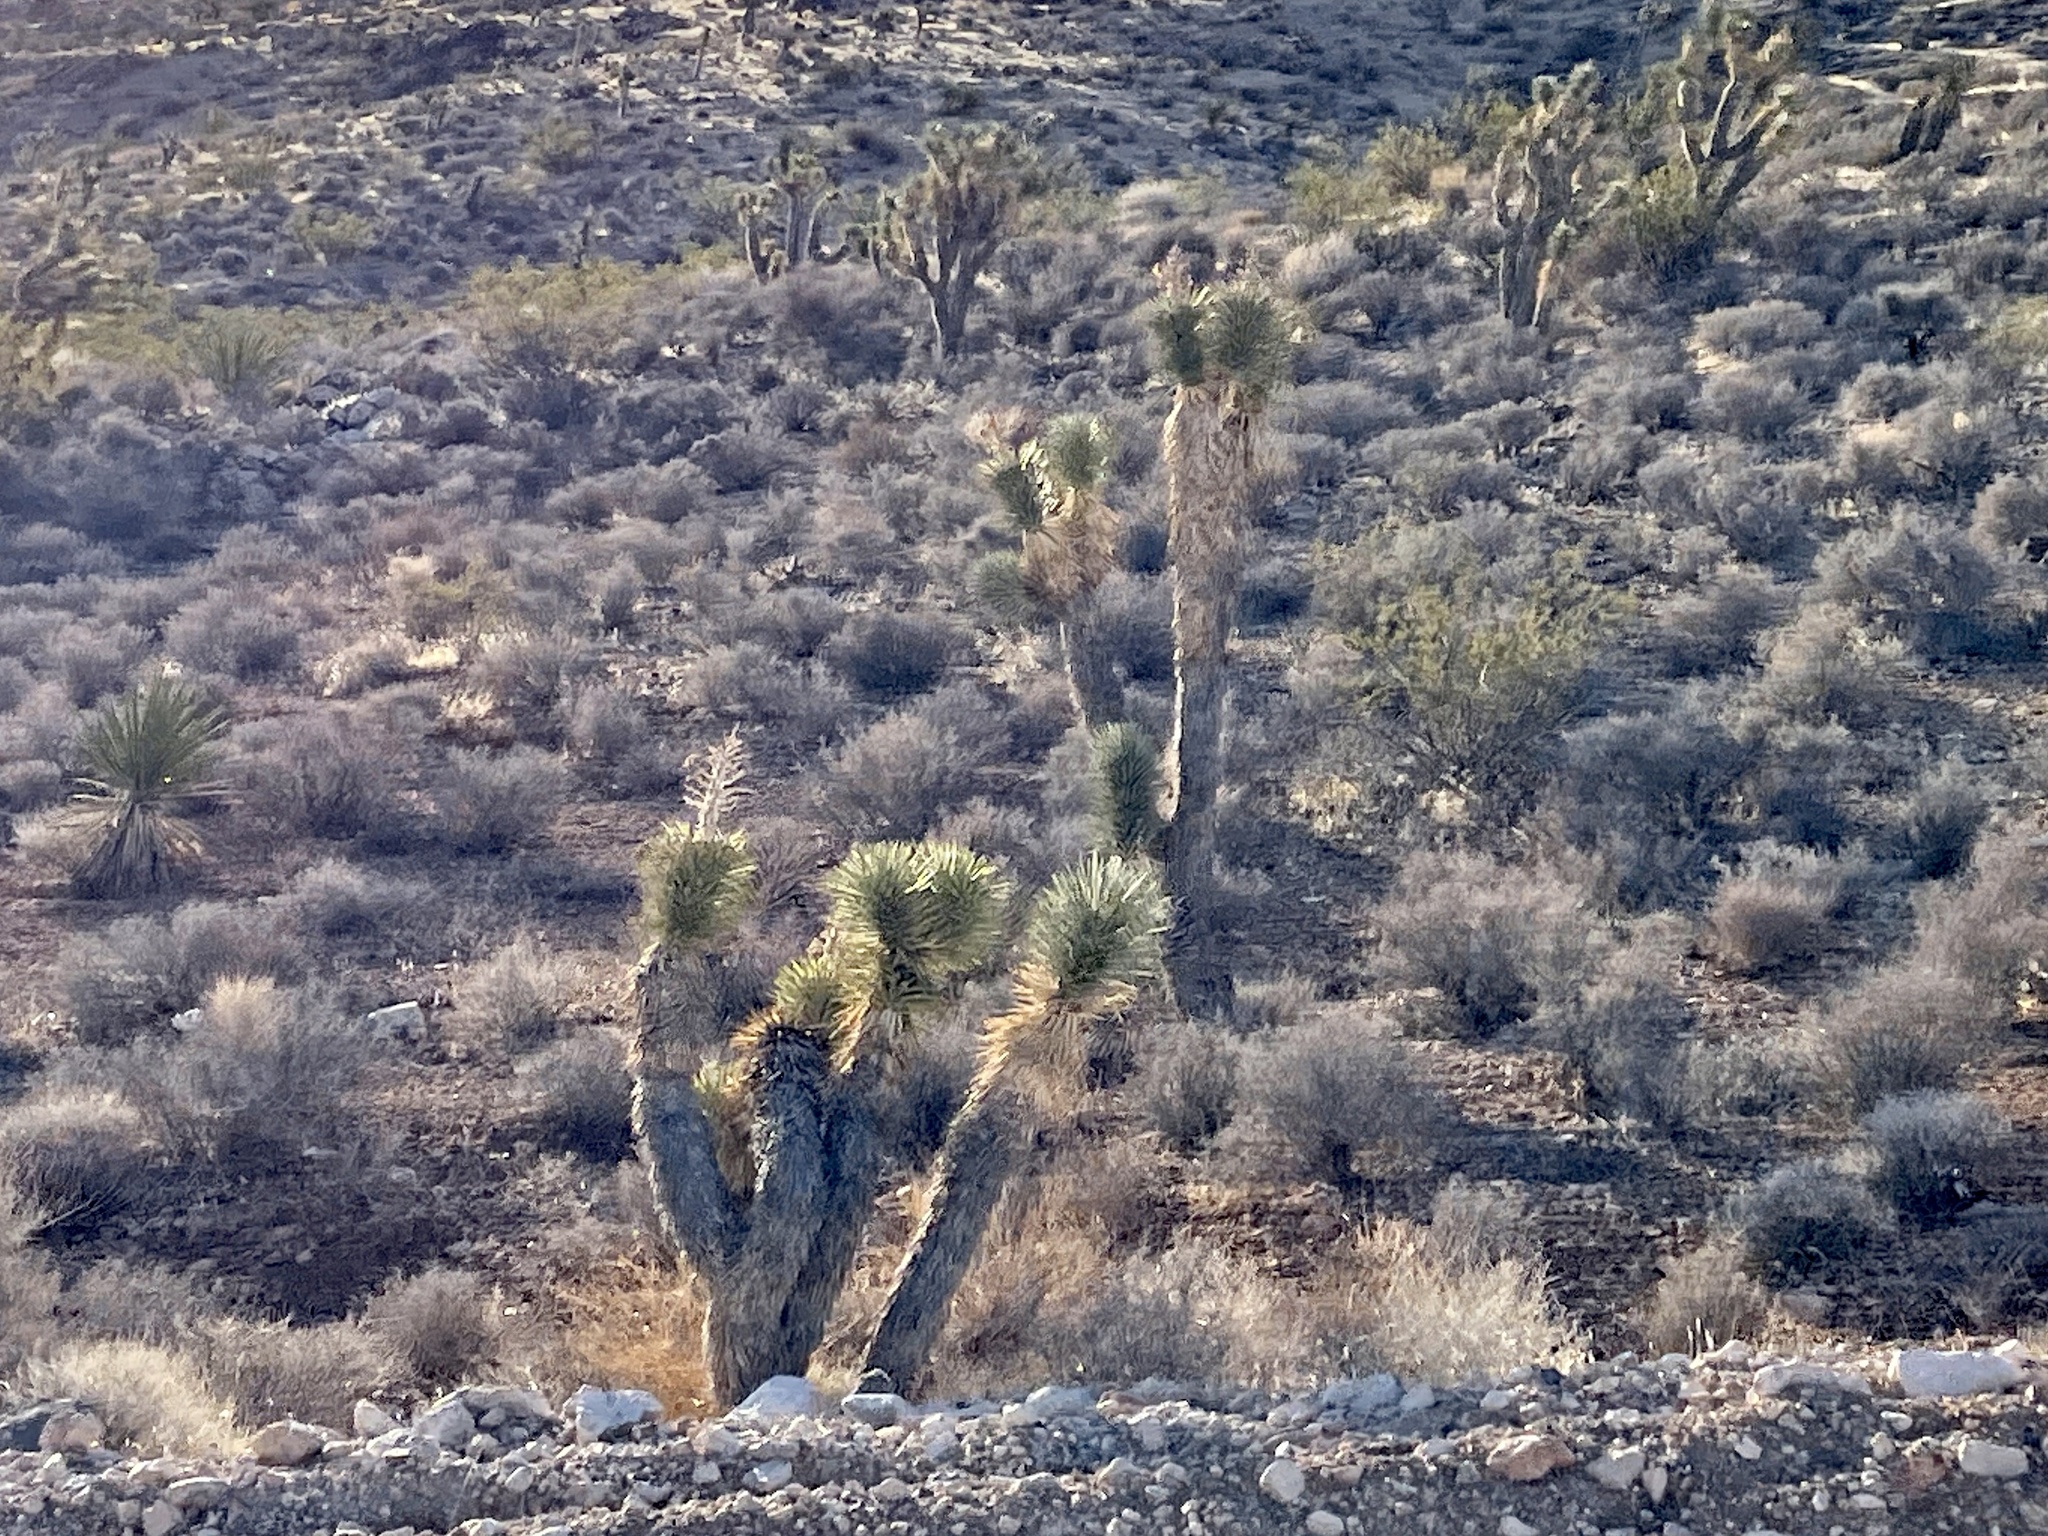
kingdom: Plantae
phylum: Tracheophyta
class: Liliopsida
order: Asparagales
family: Asparagaceae
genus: Yucca
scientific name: Yucca brevifolia
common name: Joshua tree
